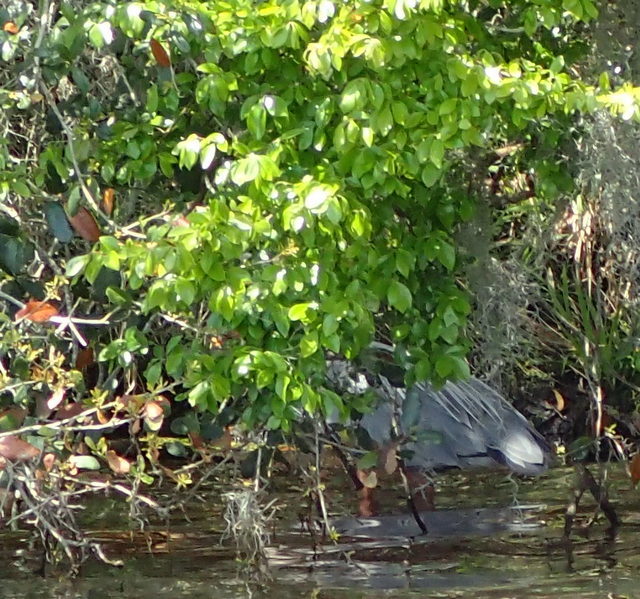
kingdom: Animalia
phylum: Chordata
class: Aves
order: Pelecaniformes
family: Ardeidae
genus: Ardea
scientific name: Ardea herodias
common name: Great blue heron
